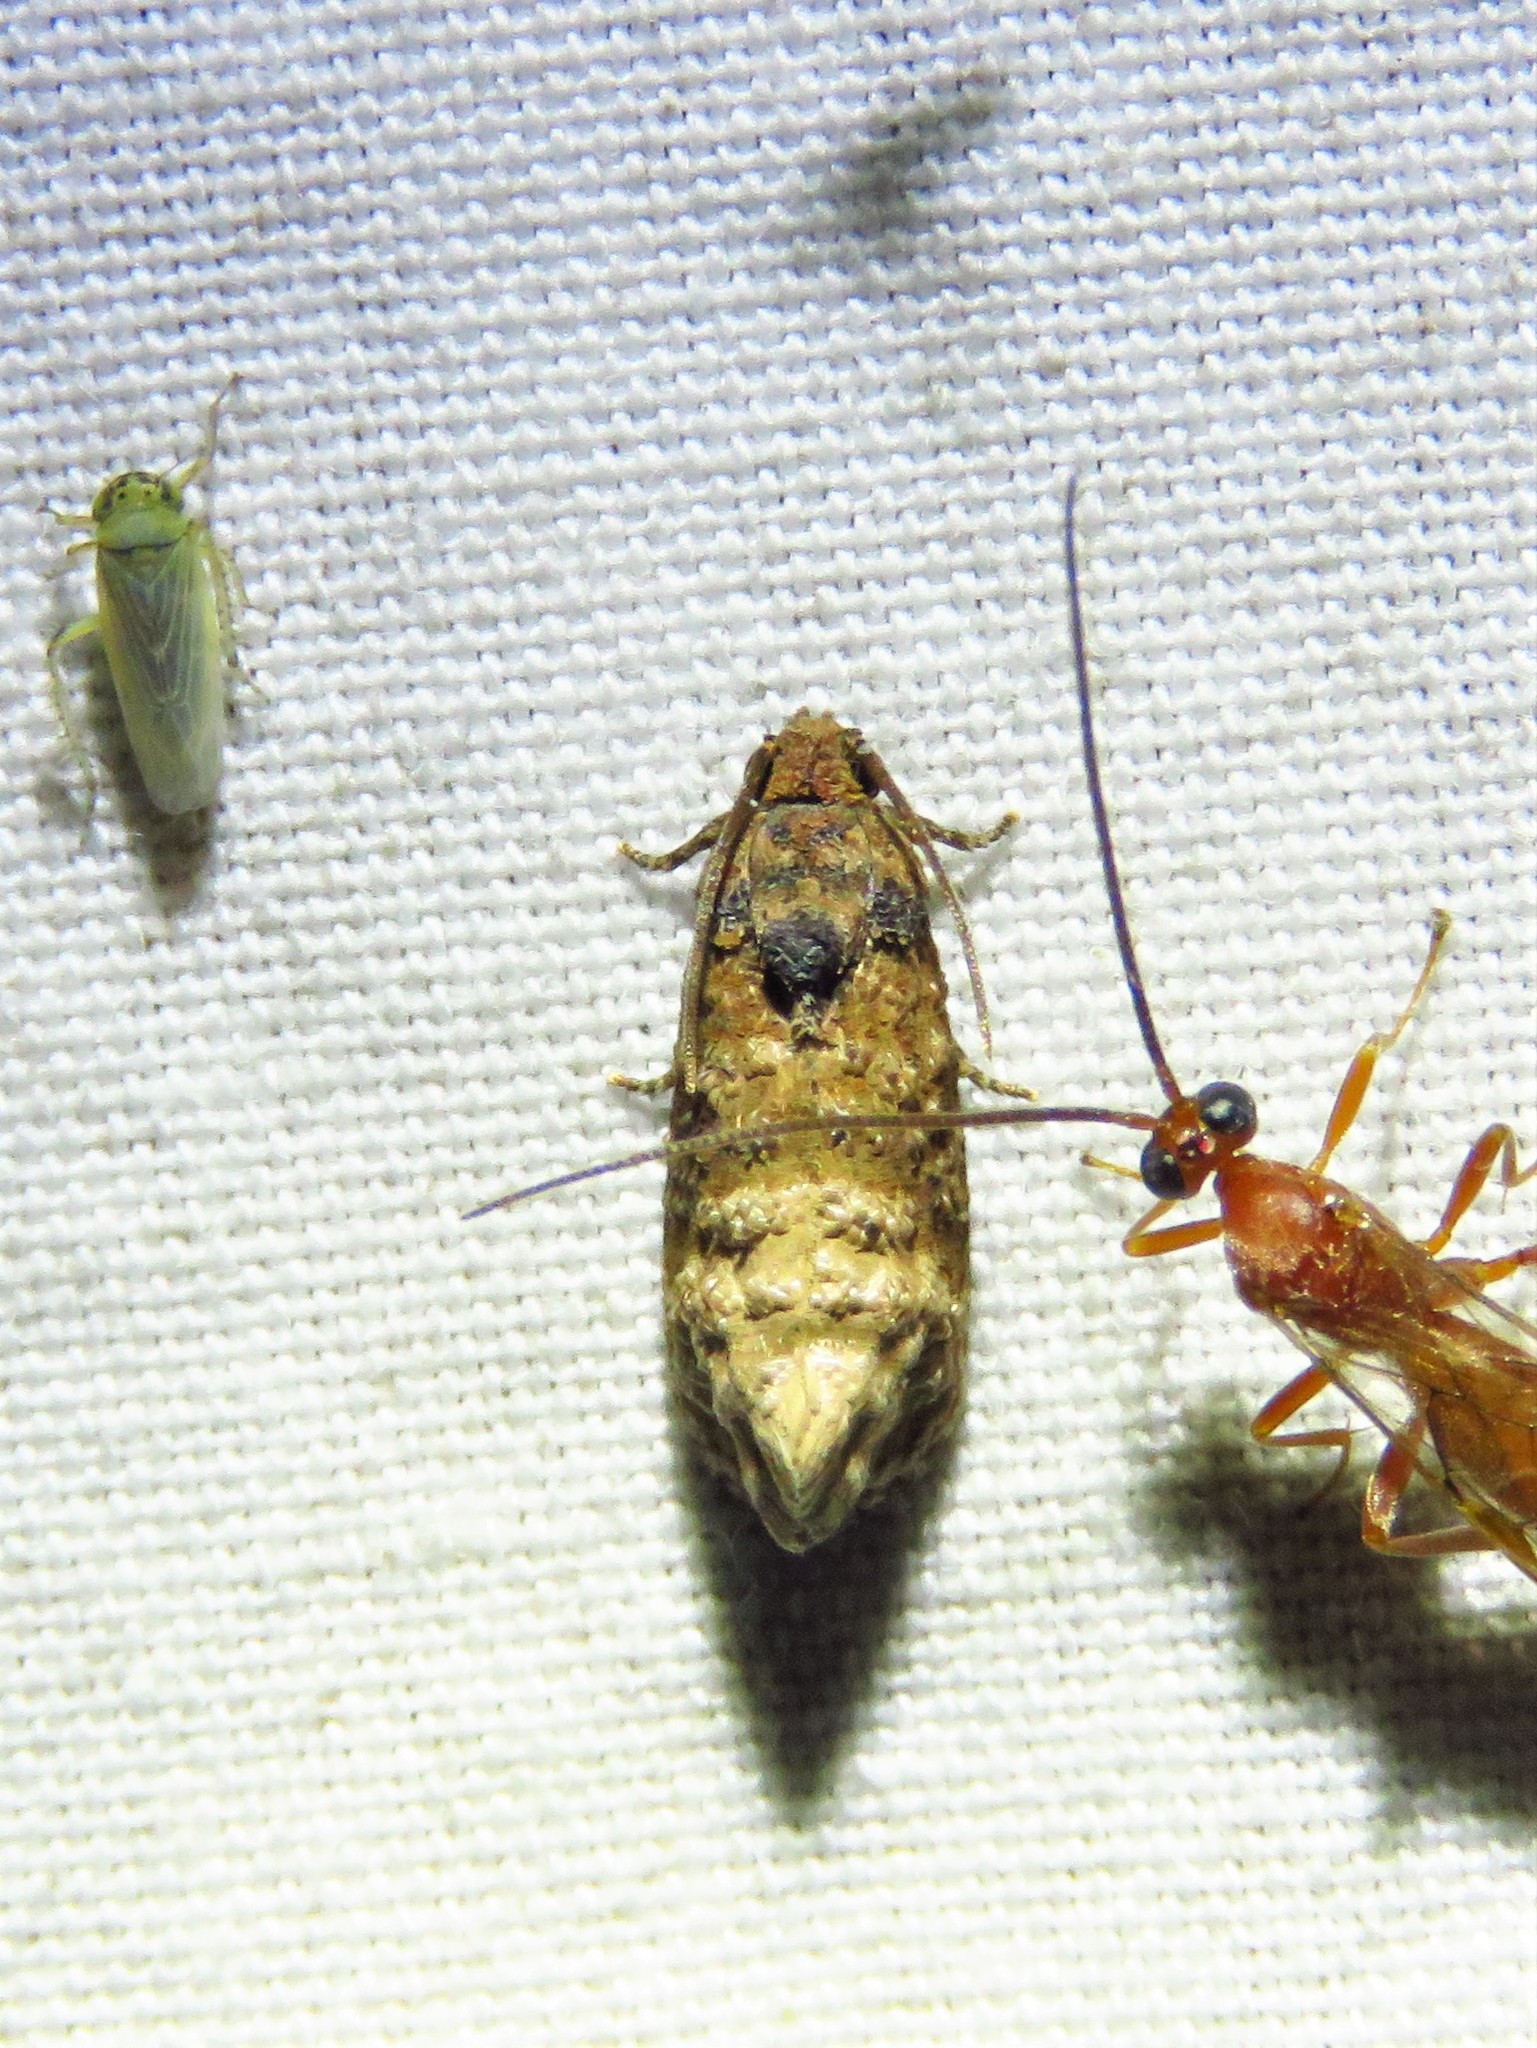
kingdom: Animalia
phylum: Arthropoda
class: Insecta
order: Lepidoptera
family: Tortricidae
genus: Ecdytolopha
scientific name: Ecdytolopha mana
